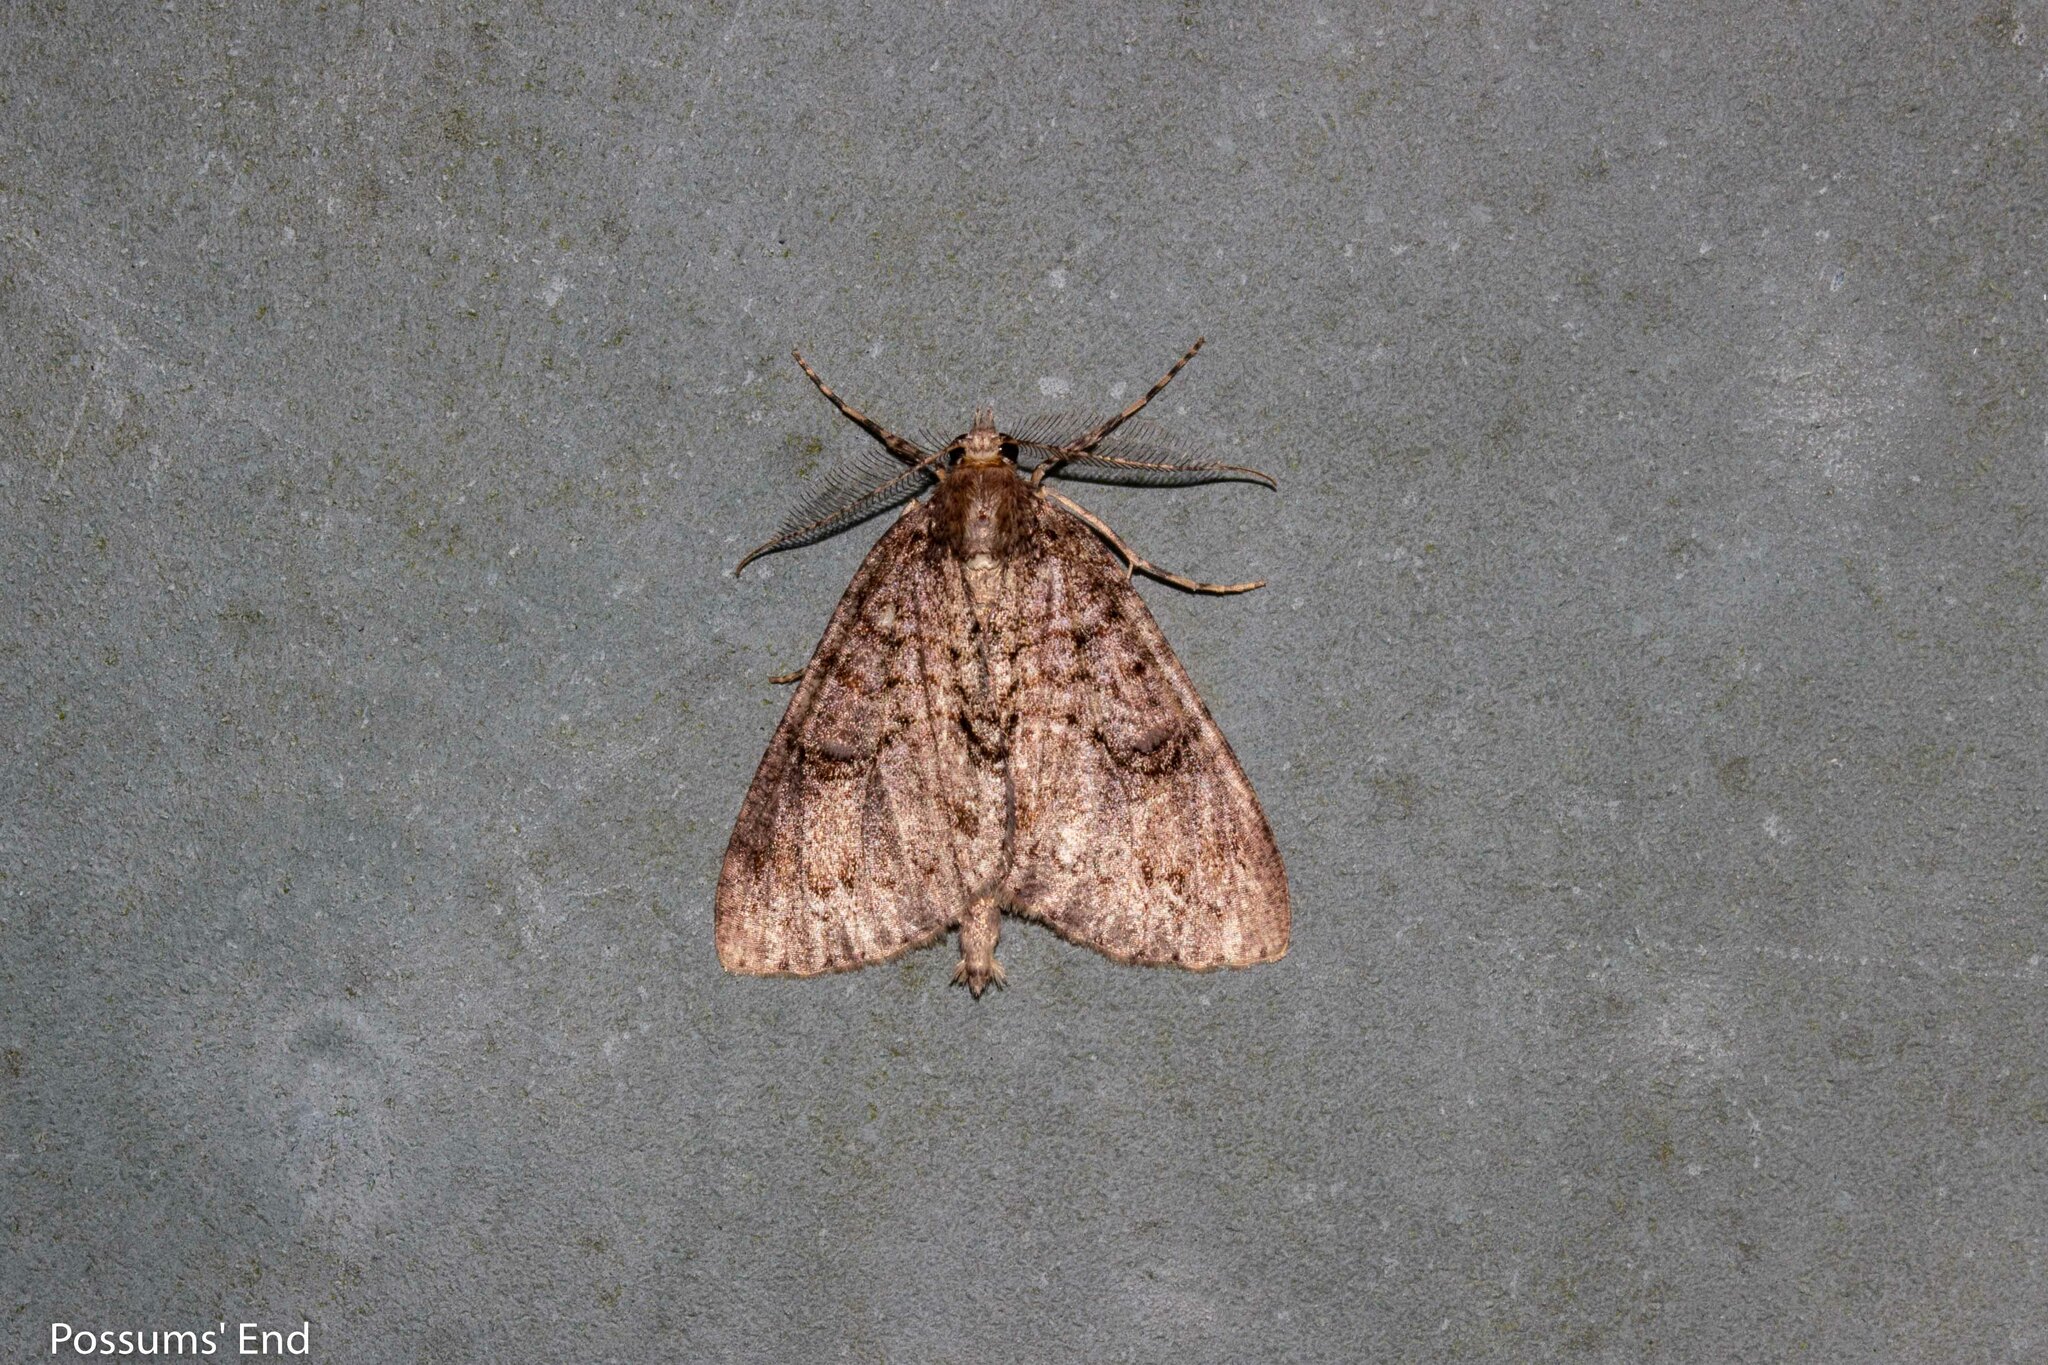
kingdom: Animalia
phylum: Arthropoda
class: Insecta
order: Lepidoptera
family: Geometridae
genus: Pseudocoremia
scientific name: Pseudocoremia suavis
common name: Common forest looper
